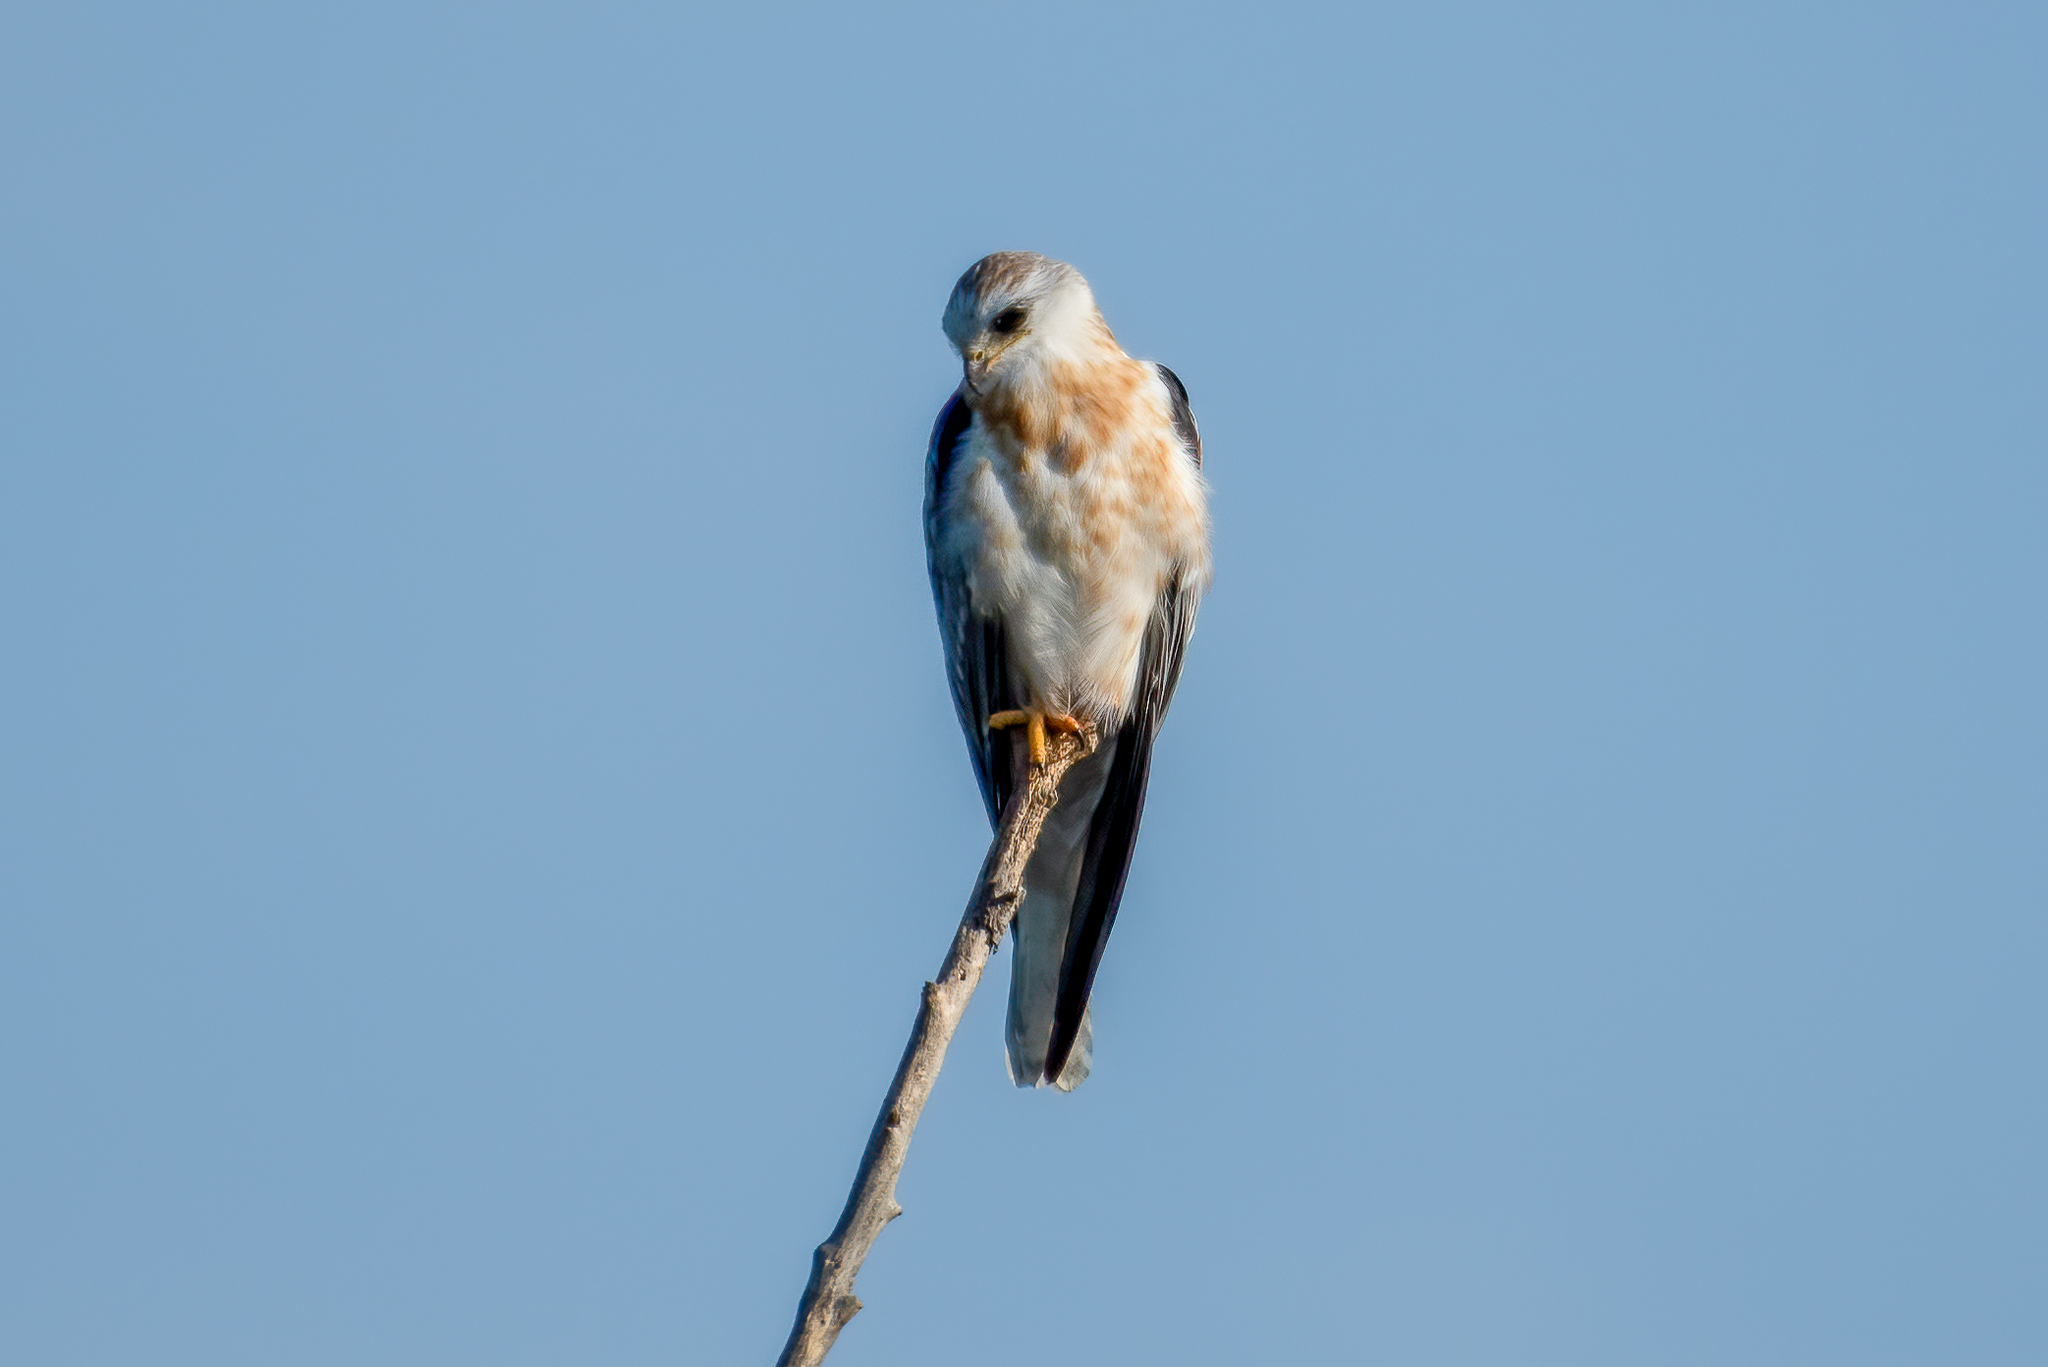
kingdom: Animalia
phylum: Chordata
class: Aves
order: Accipitriformes
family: Accipitridae
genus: Elanus
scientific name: Elanus leucurus
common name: White-tailed kite
